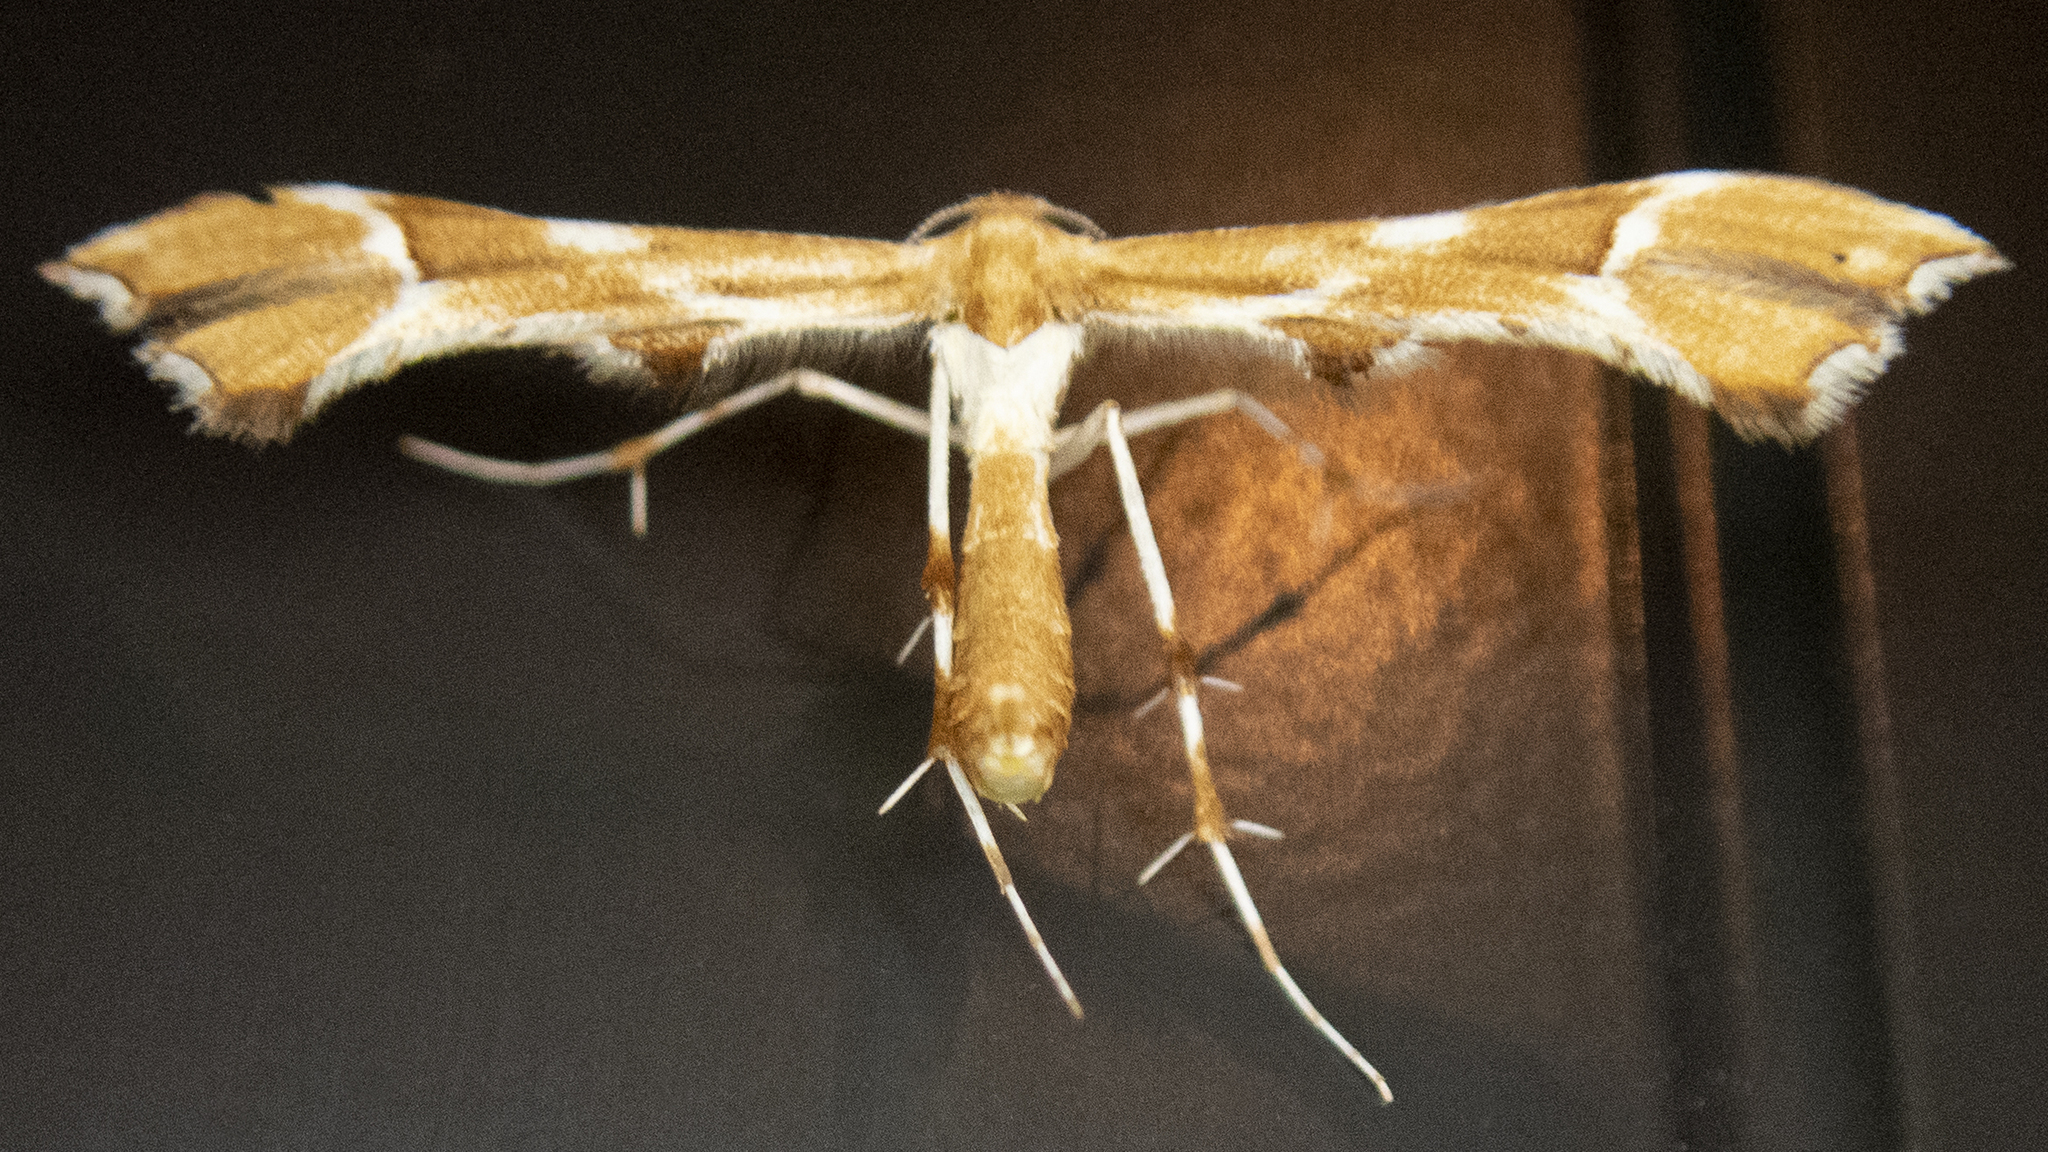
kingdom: Animalia
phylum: Arthropoda
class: Insecta
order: Lepidoptera
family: Pterophoridae
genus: Cnaemidophorus
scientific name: Cnaemidophorus rhododactyla
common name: Rose plume
